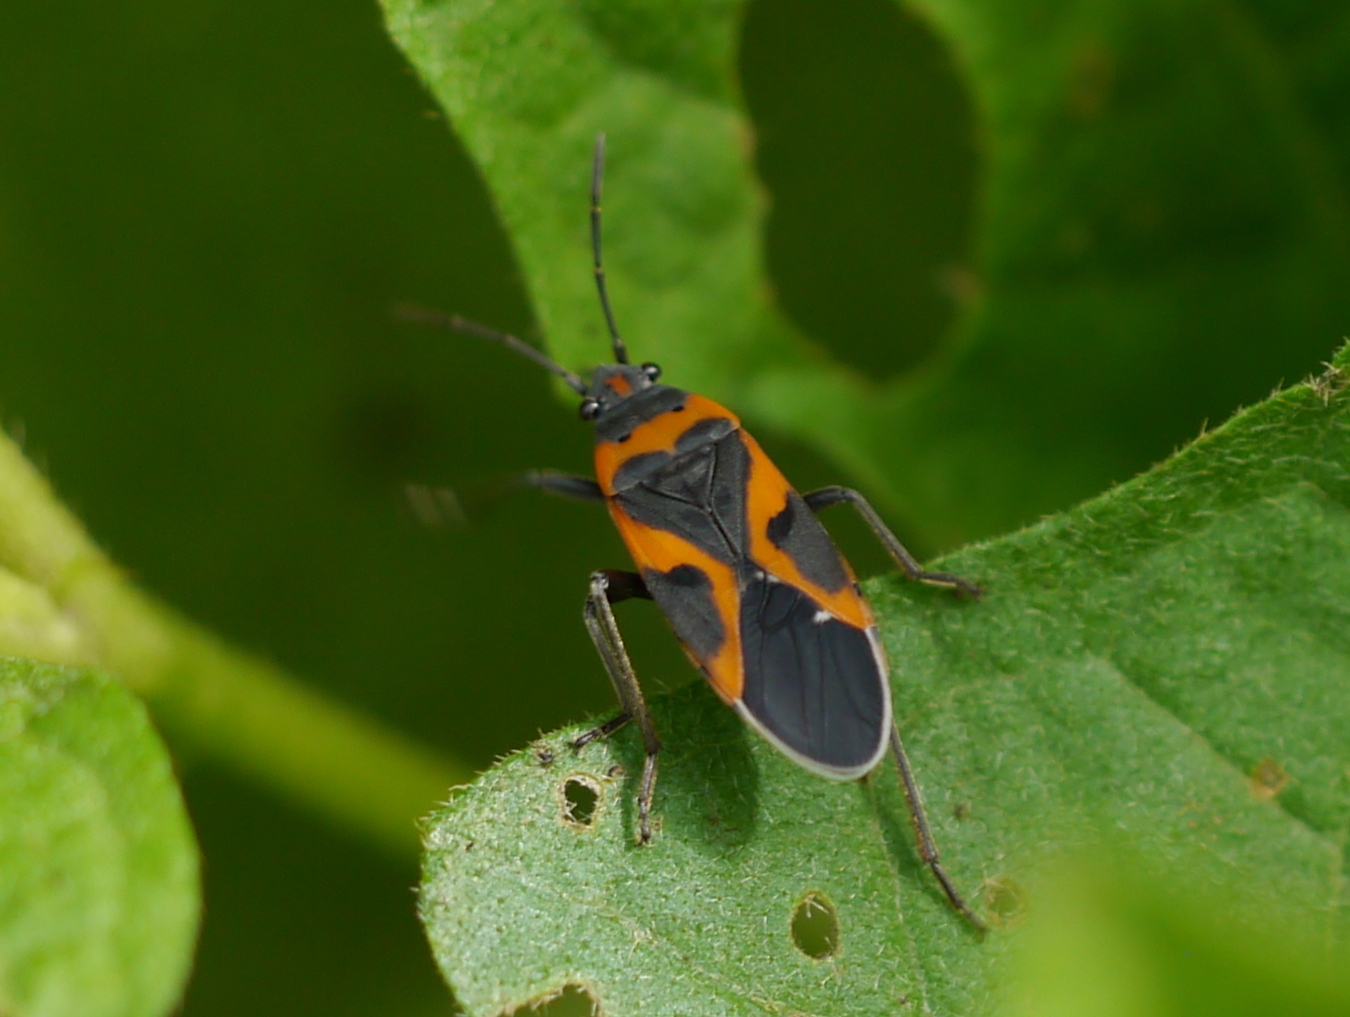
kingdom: Animalia
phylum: Arthropoda
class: Insecta
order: Hemiptera
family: Lygaeidae
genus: Lygaeus
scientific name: Lygaeus kalmii
